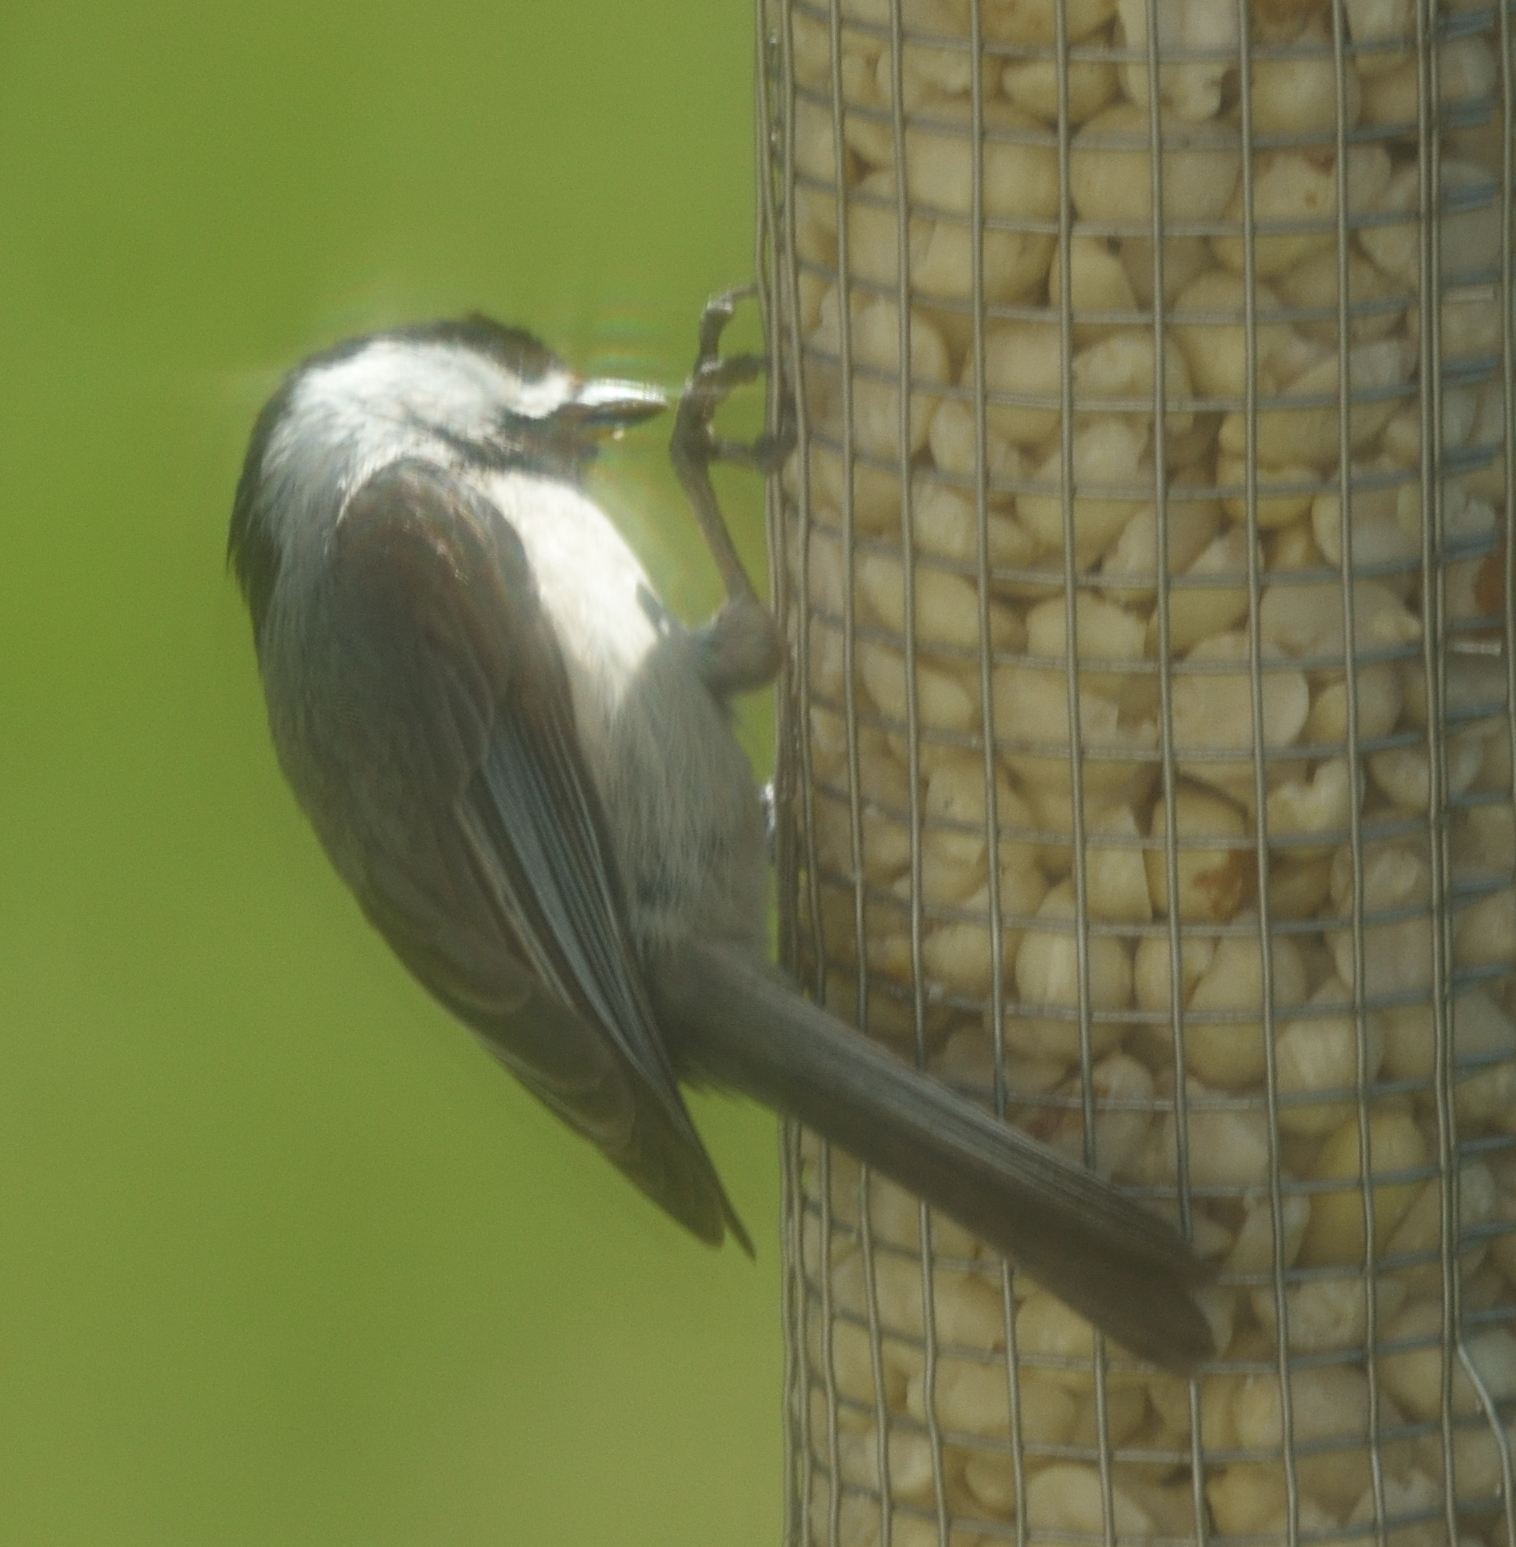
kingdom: Animalia
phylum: Chordata
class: Aves
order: Passeriformes
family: Paridae
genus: Poecile
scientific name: Poecile carolinensis
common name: Carolina chickadee
